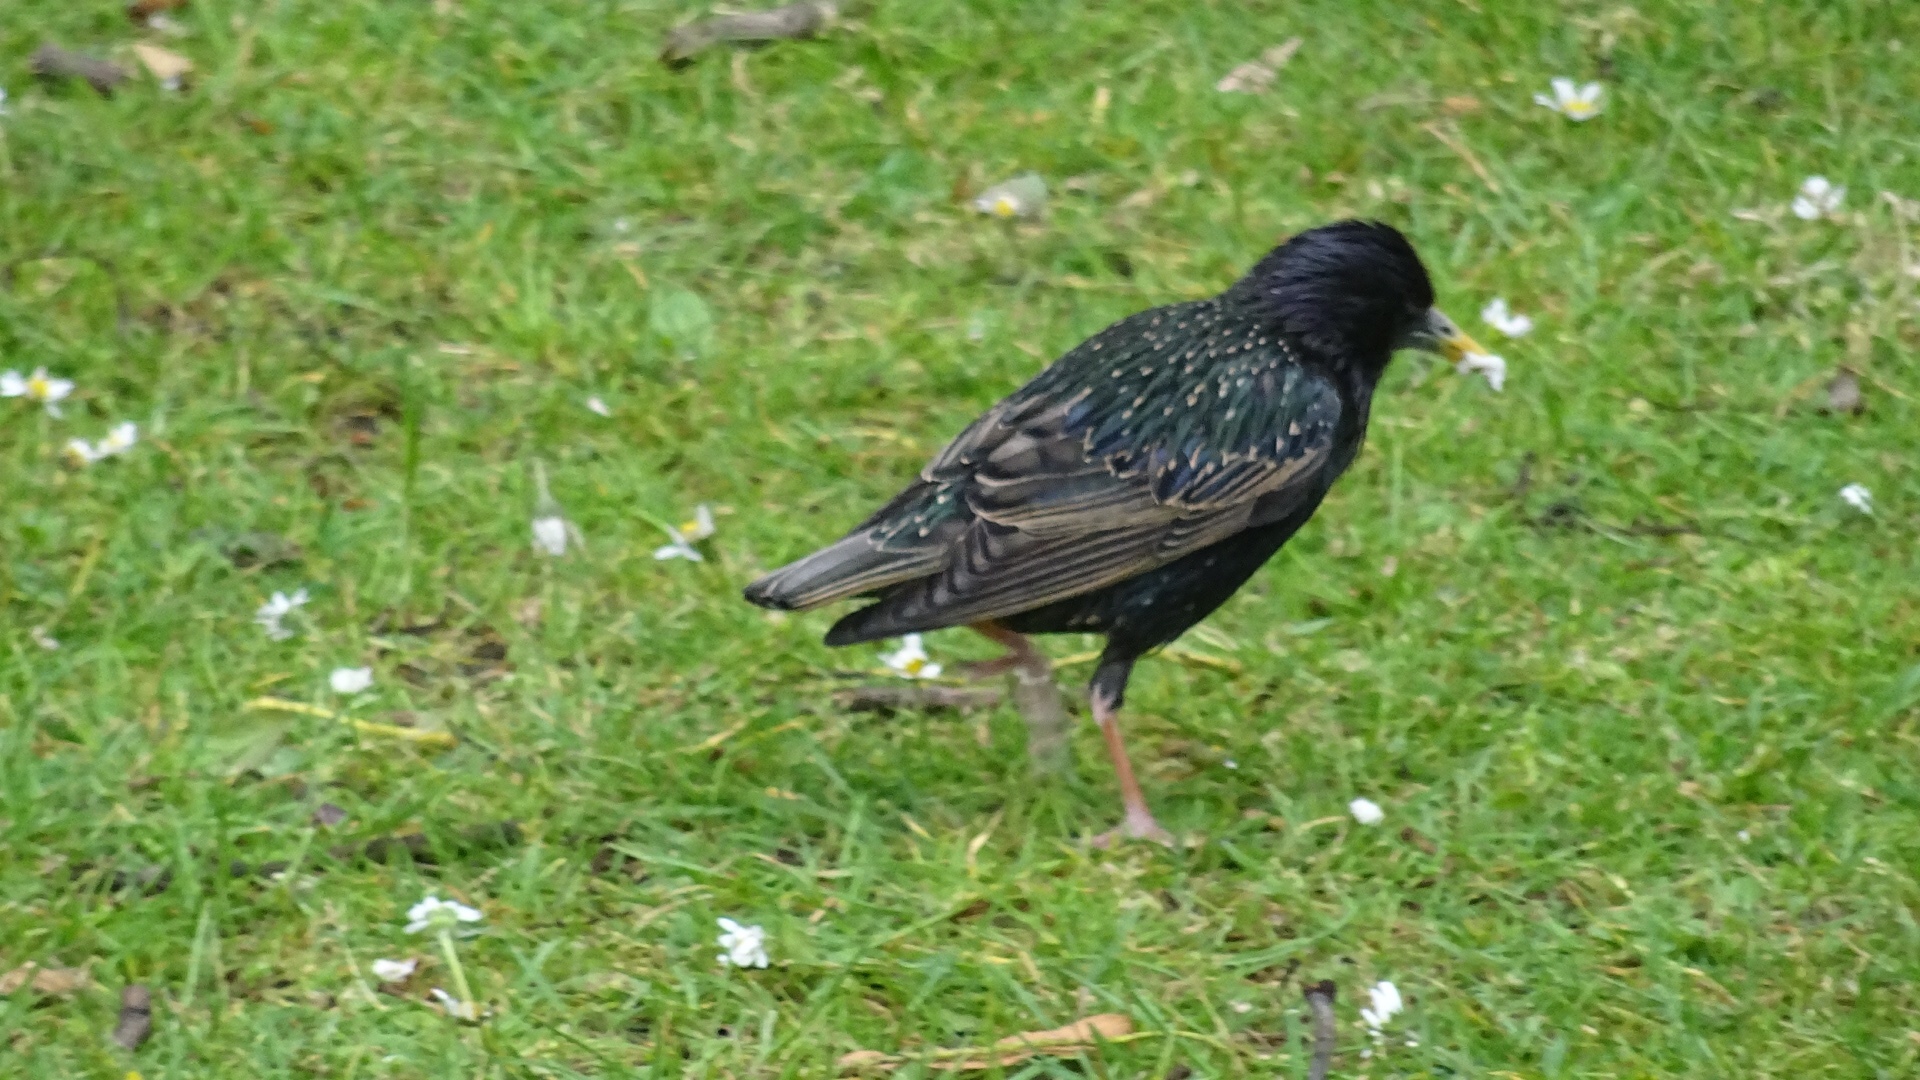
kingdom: Animalia
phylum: Chordata
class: Aves
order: Passeriformes
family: Sturnidae
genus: Sturnus
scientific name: Sturnus vulgaris
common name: Common starling
